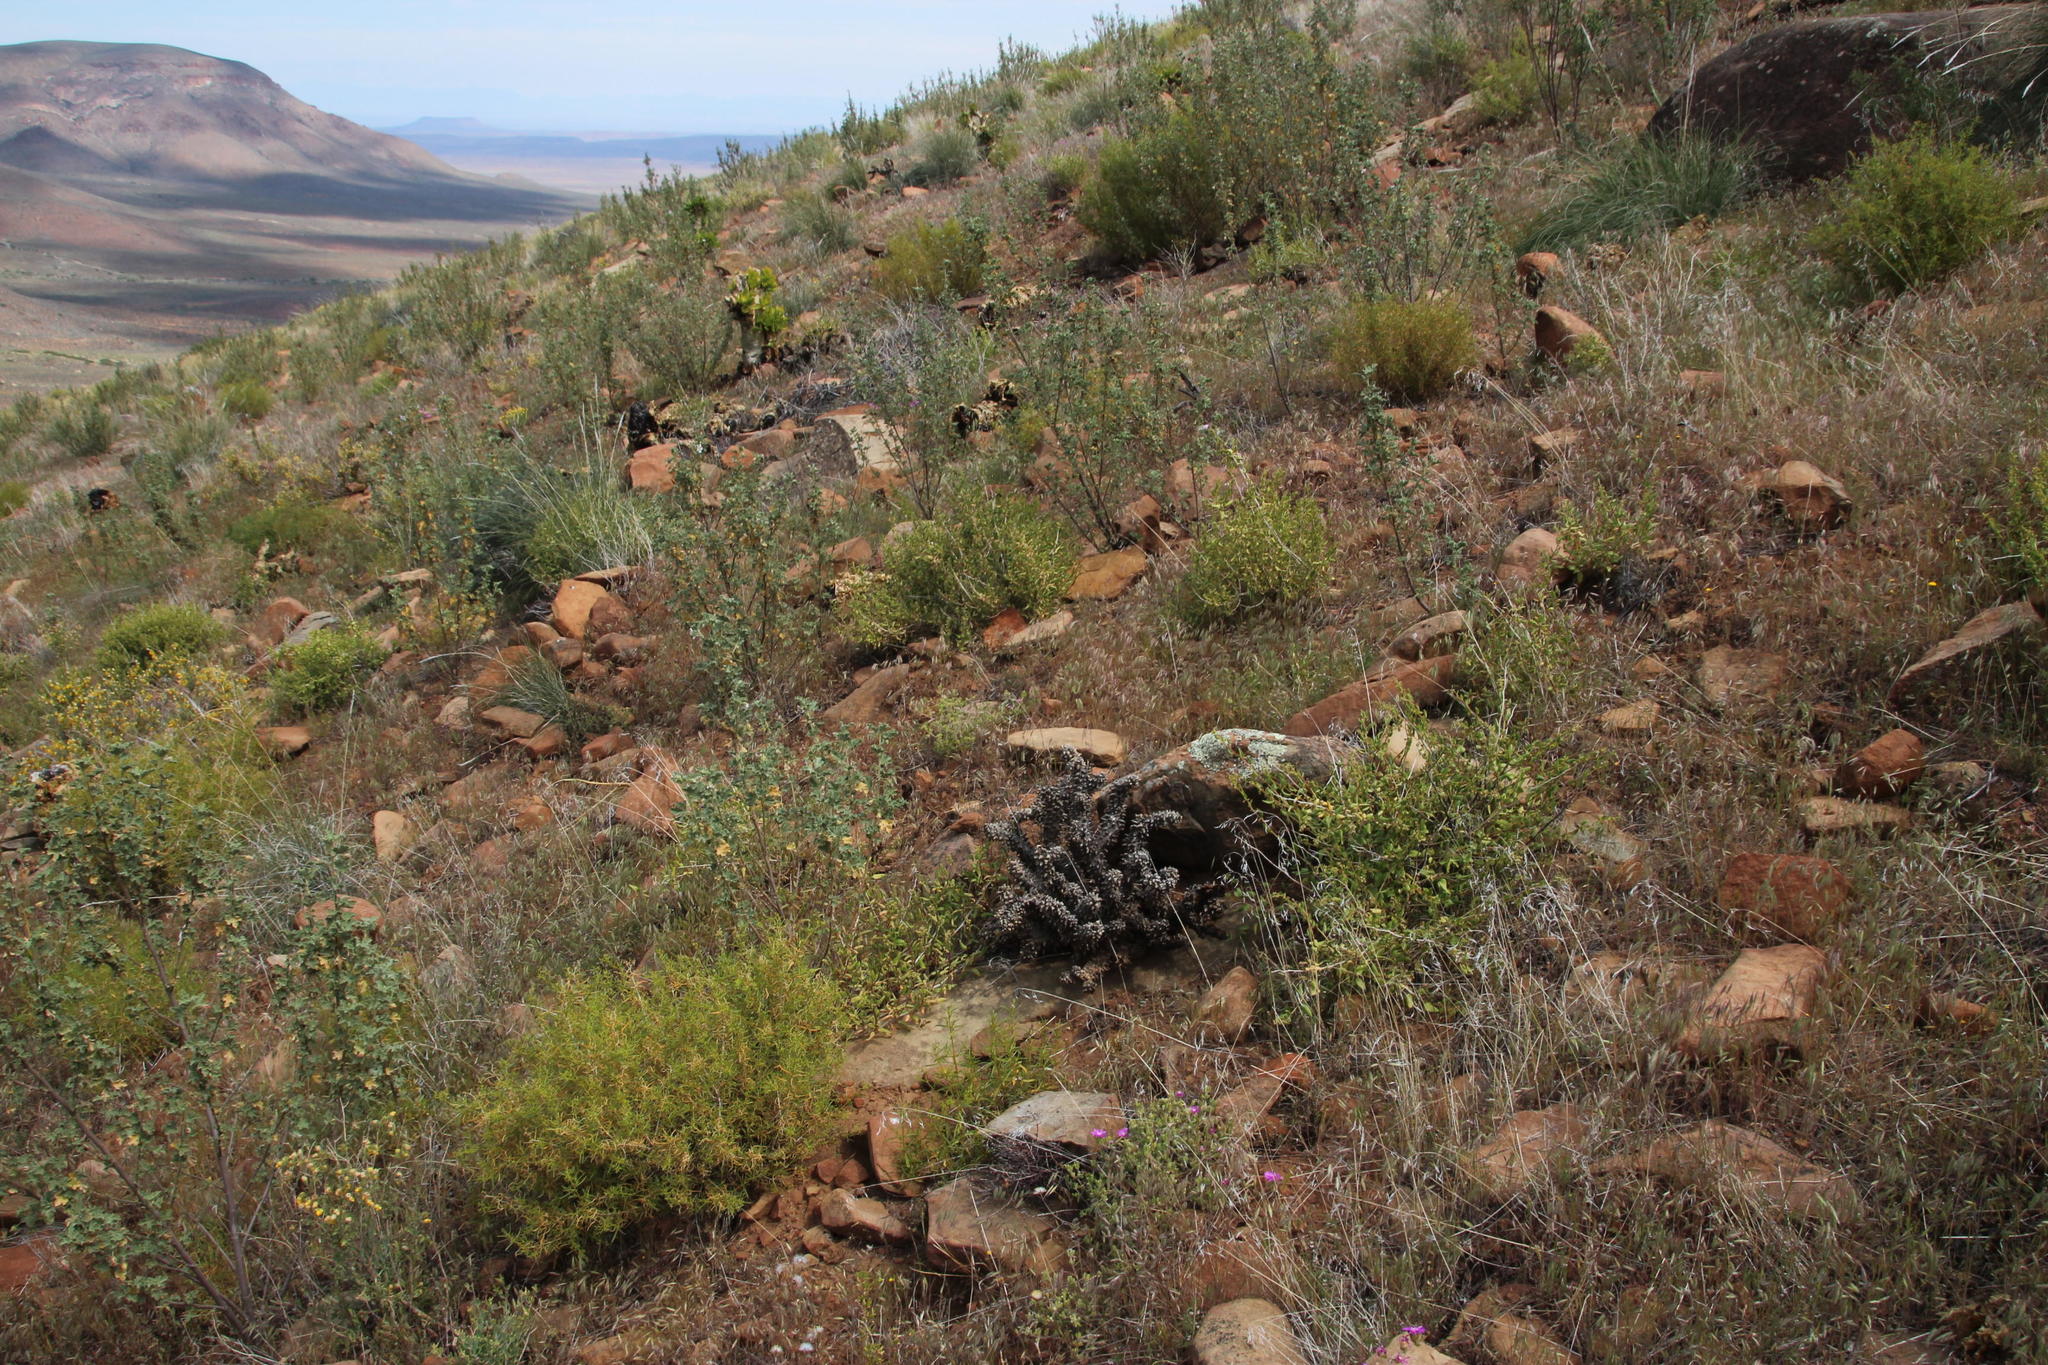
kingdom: Plantae
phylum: Tracheophyta
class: Magnoliopsida
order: Saxifragales
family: Crassulaceae
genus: Tylecodon
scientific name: Tylecodon paniculatus
